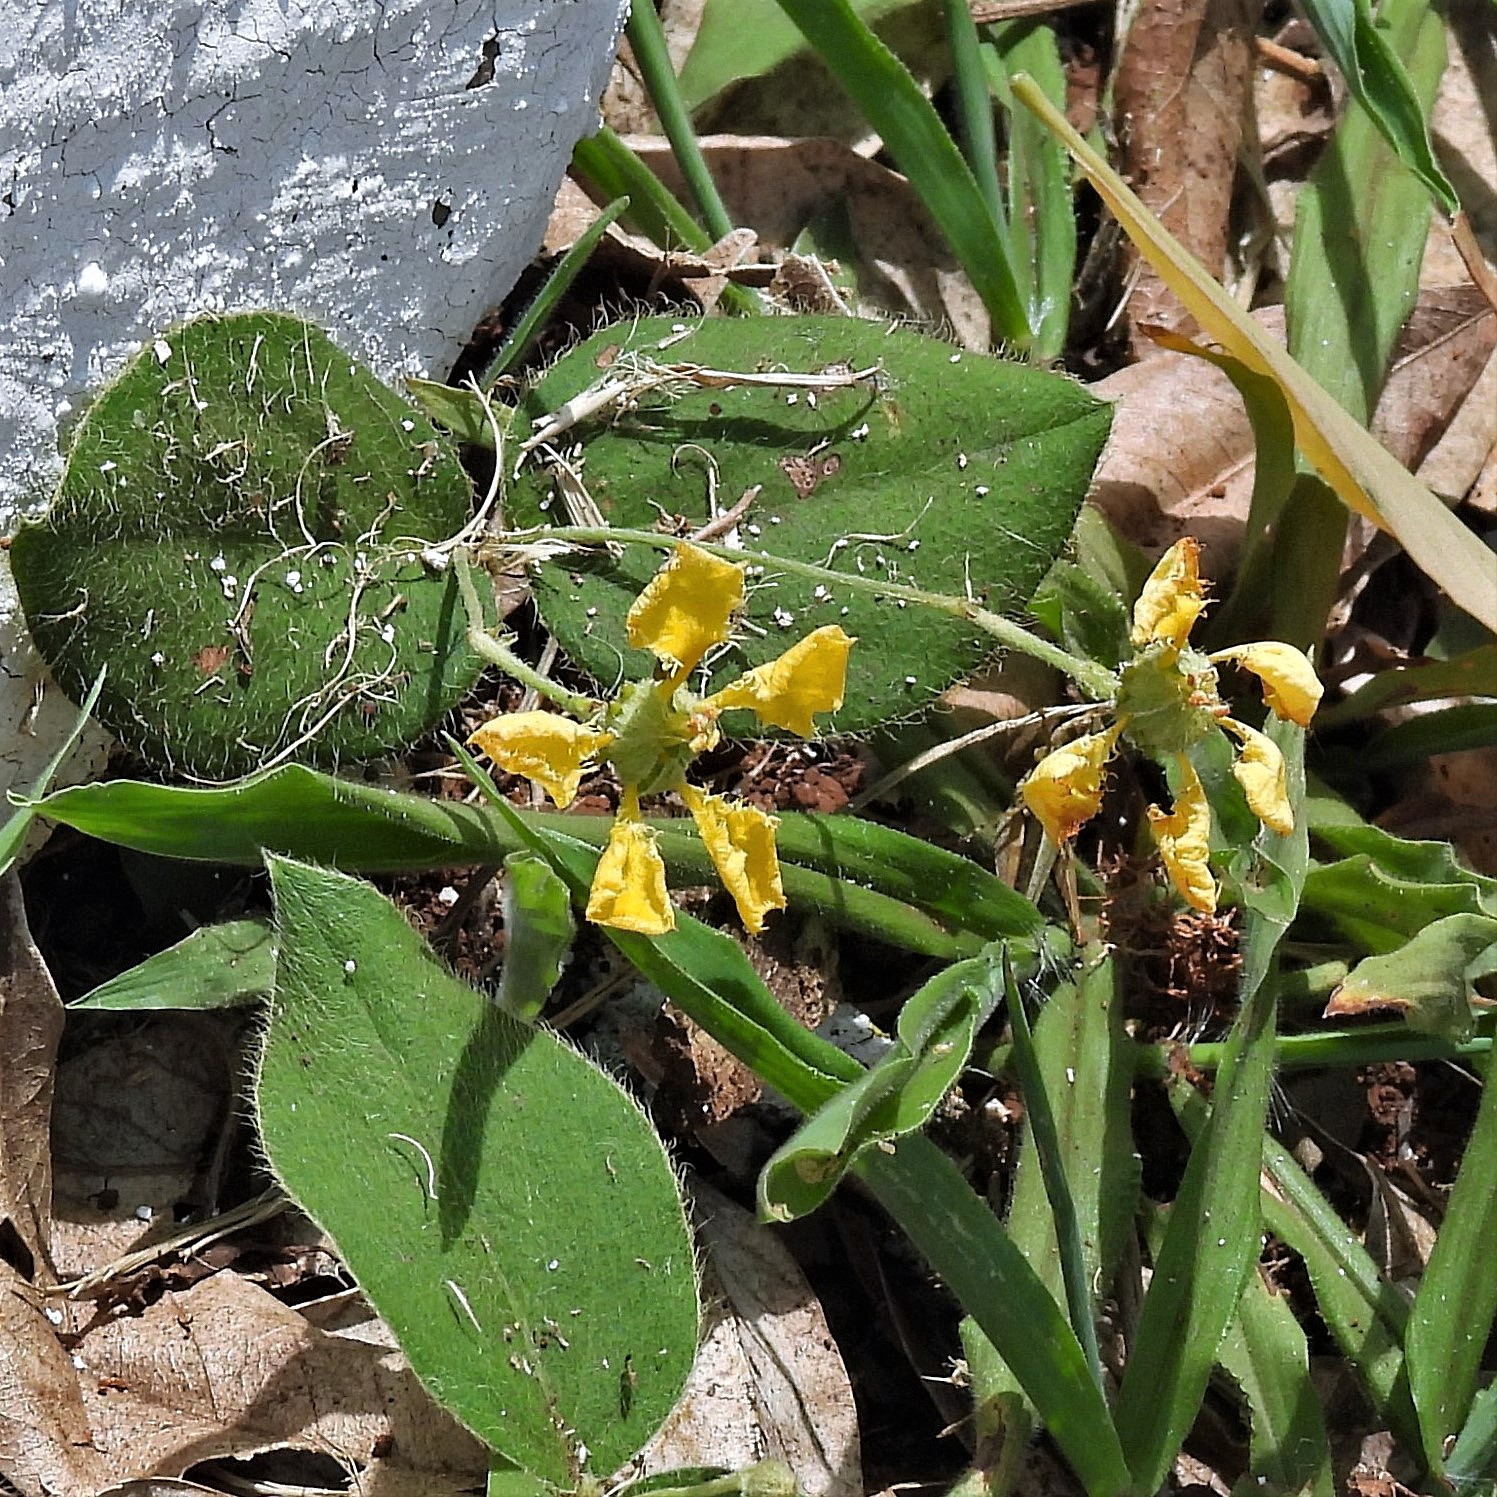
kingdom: Plantae
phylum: Tracheophyta
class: Magnoliopsida
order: Malpighiales
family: Malpighiaceae
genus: Aspicarpa
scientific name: Aspicarpa pulchella
